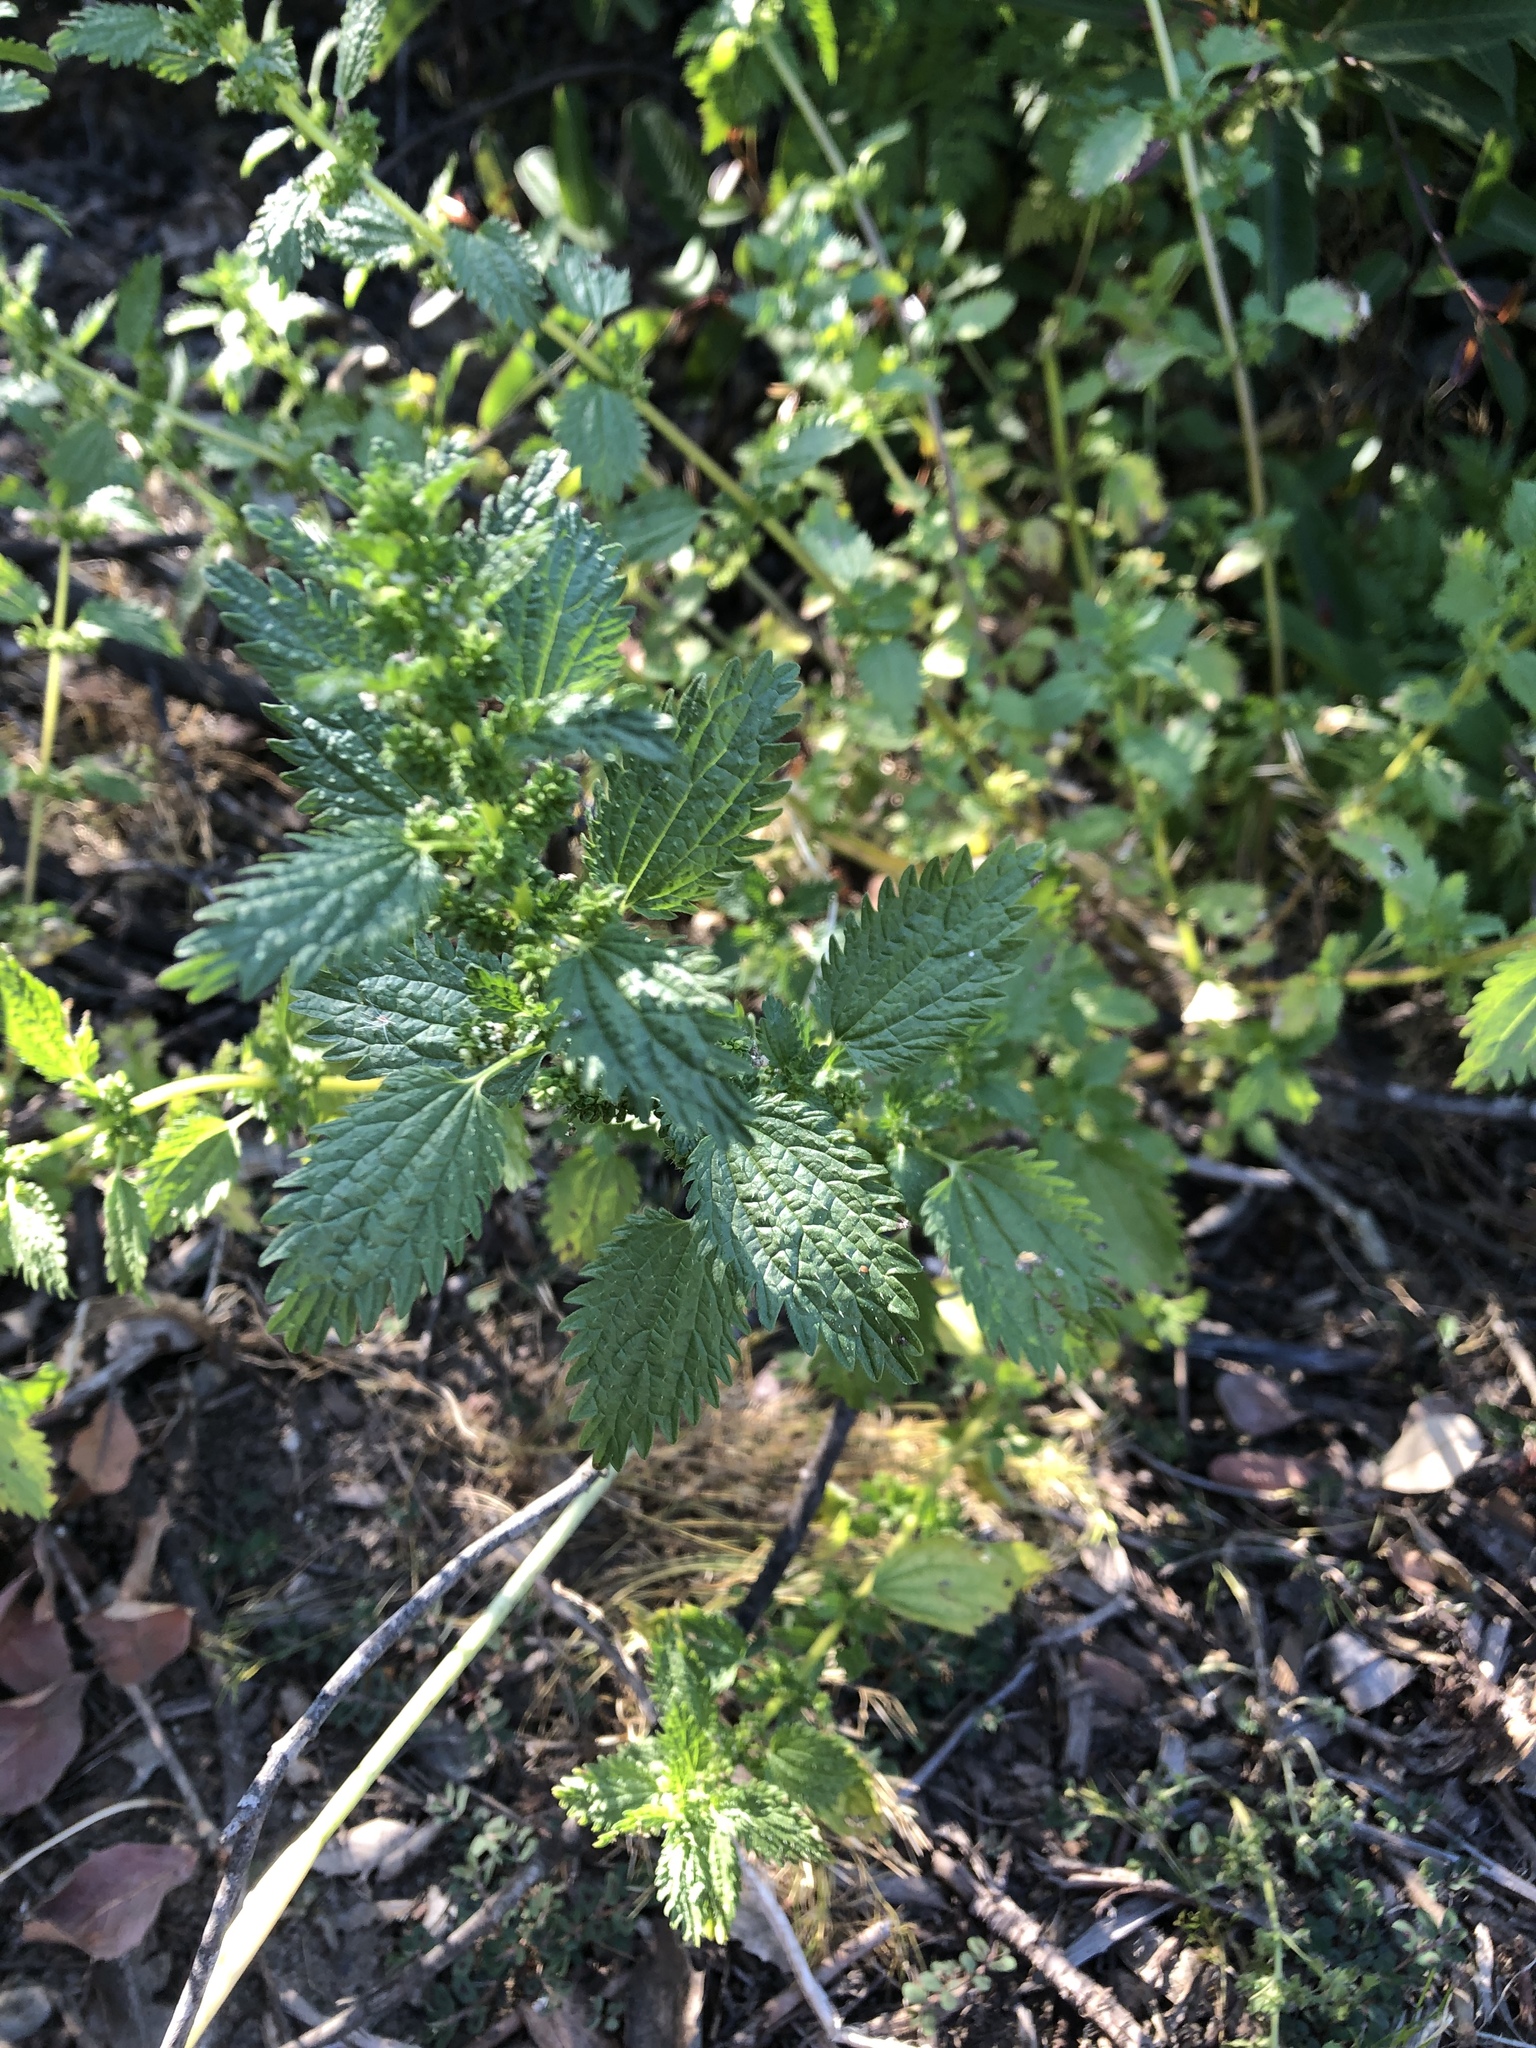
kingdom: Plantae
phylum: Tracheophyta
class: Magnoliopsida
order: Rosales
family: Urticaceae
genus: Urtica
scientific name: Urtica urens
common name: Dwarf nettle
